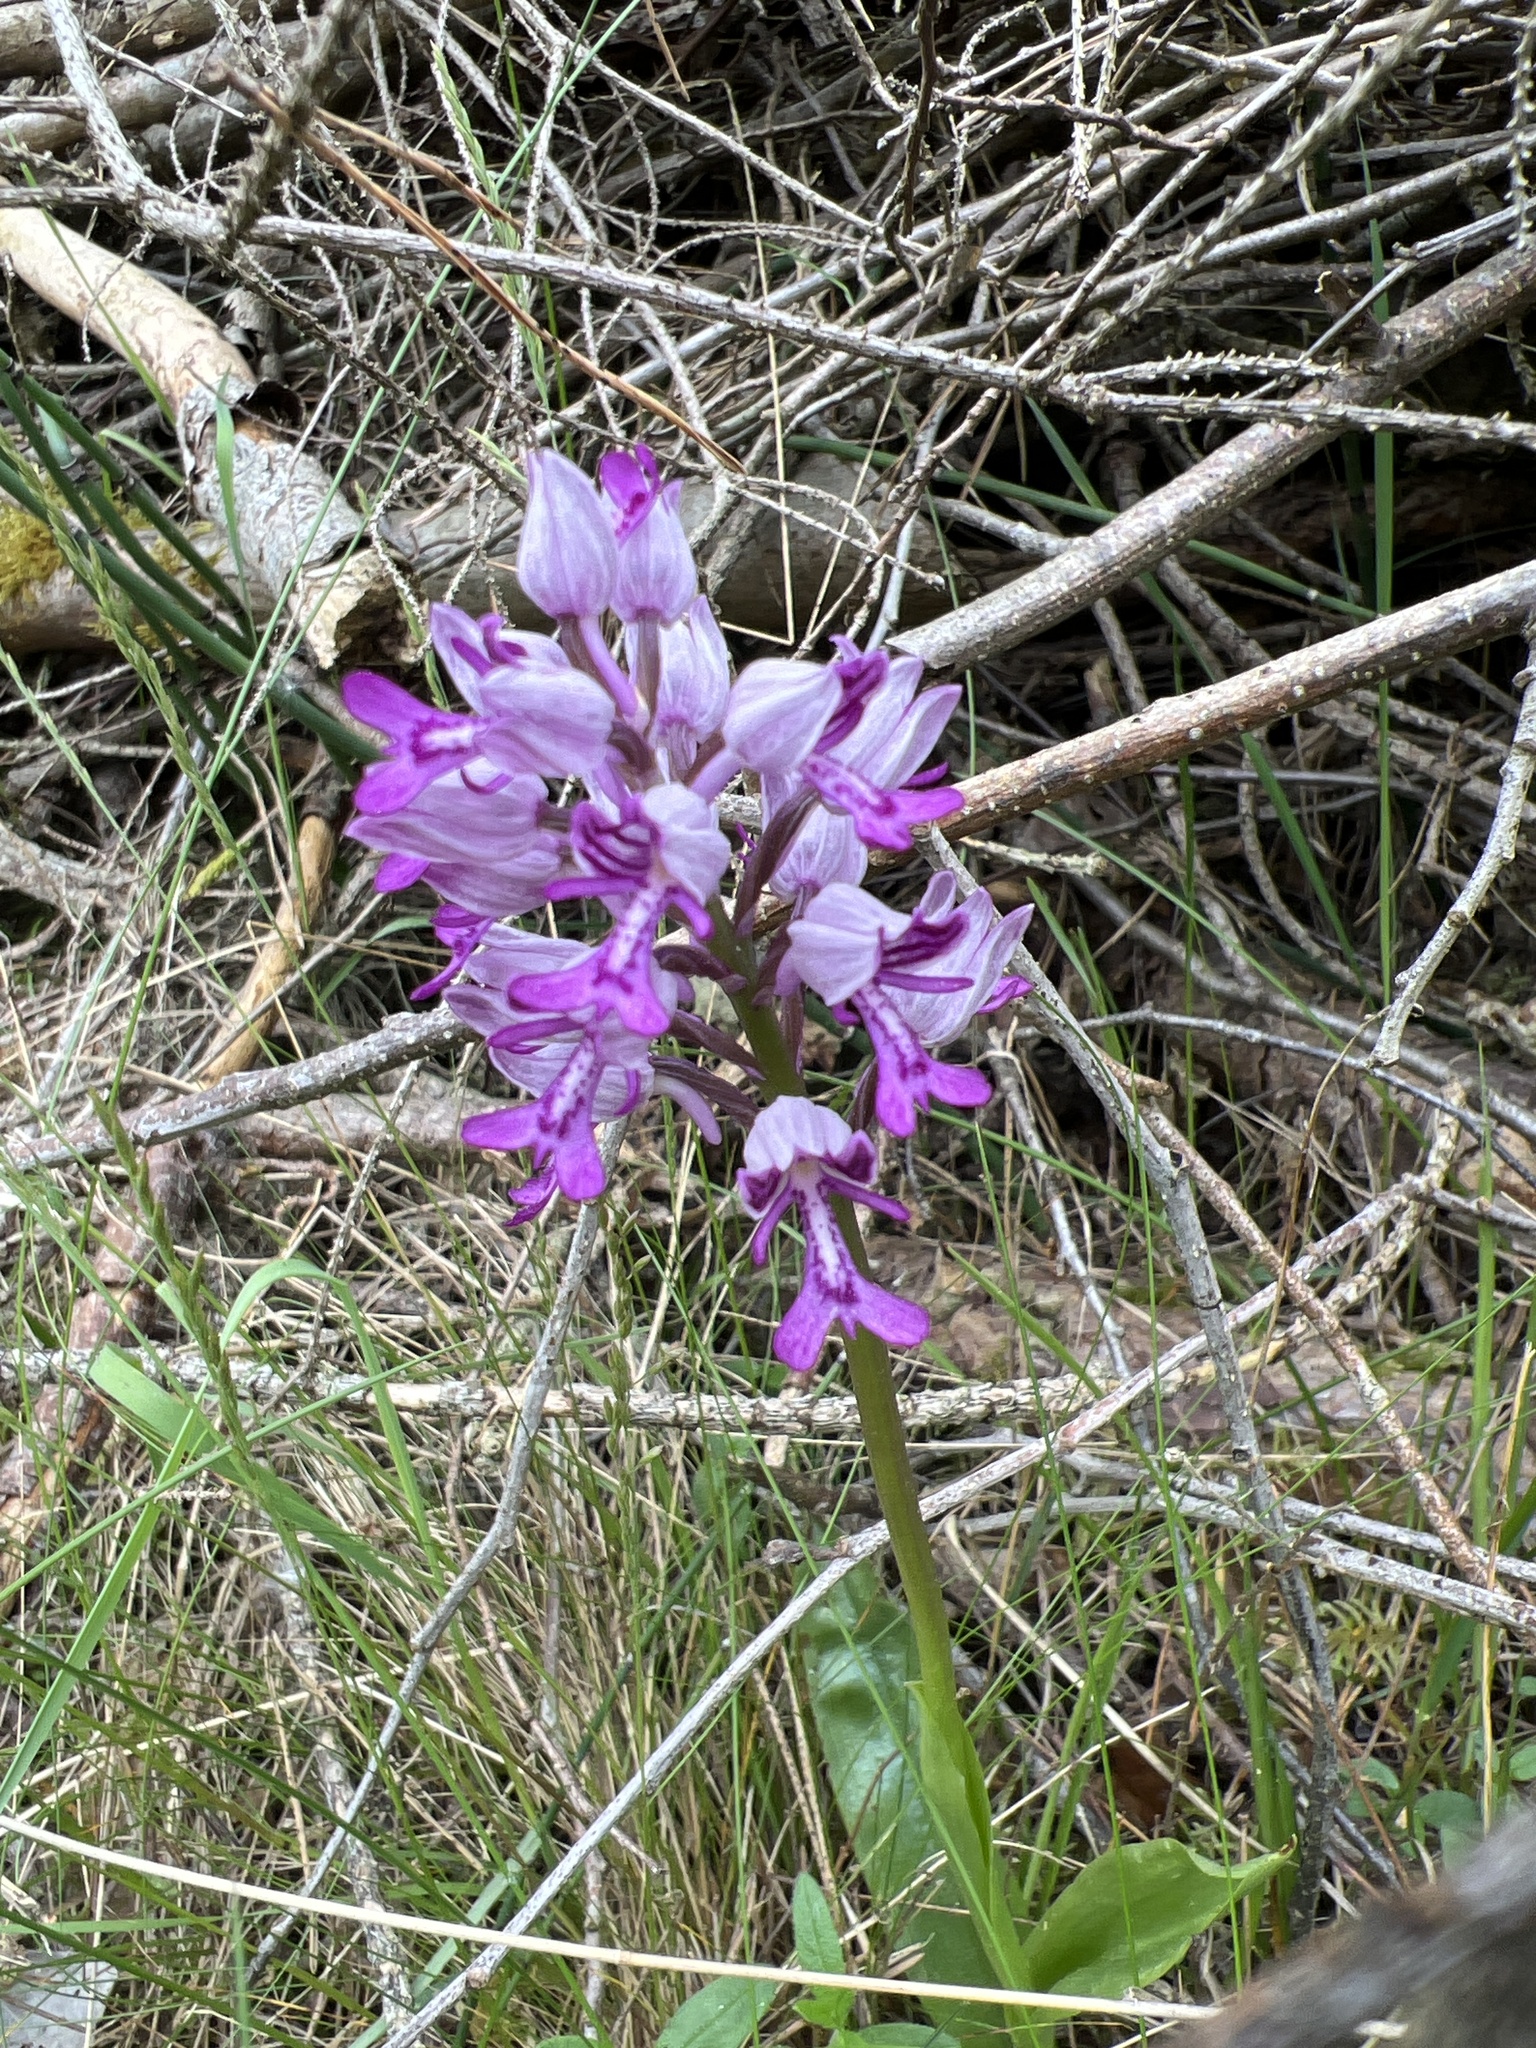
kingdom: Plantae
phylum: Tracheophyta
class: Liliopsida
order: Asparagales
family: Orchidaceae
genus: Orchis
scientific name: Orchis militaris
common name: Military orchid
